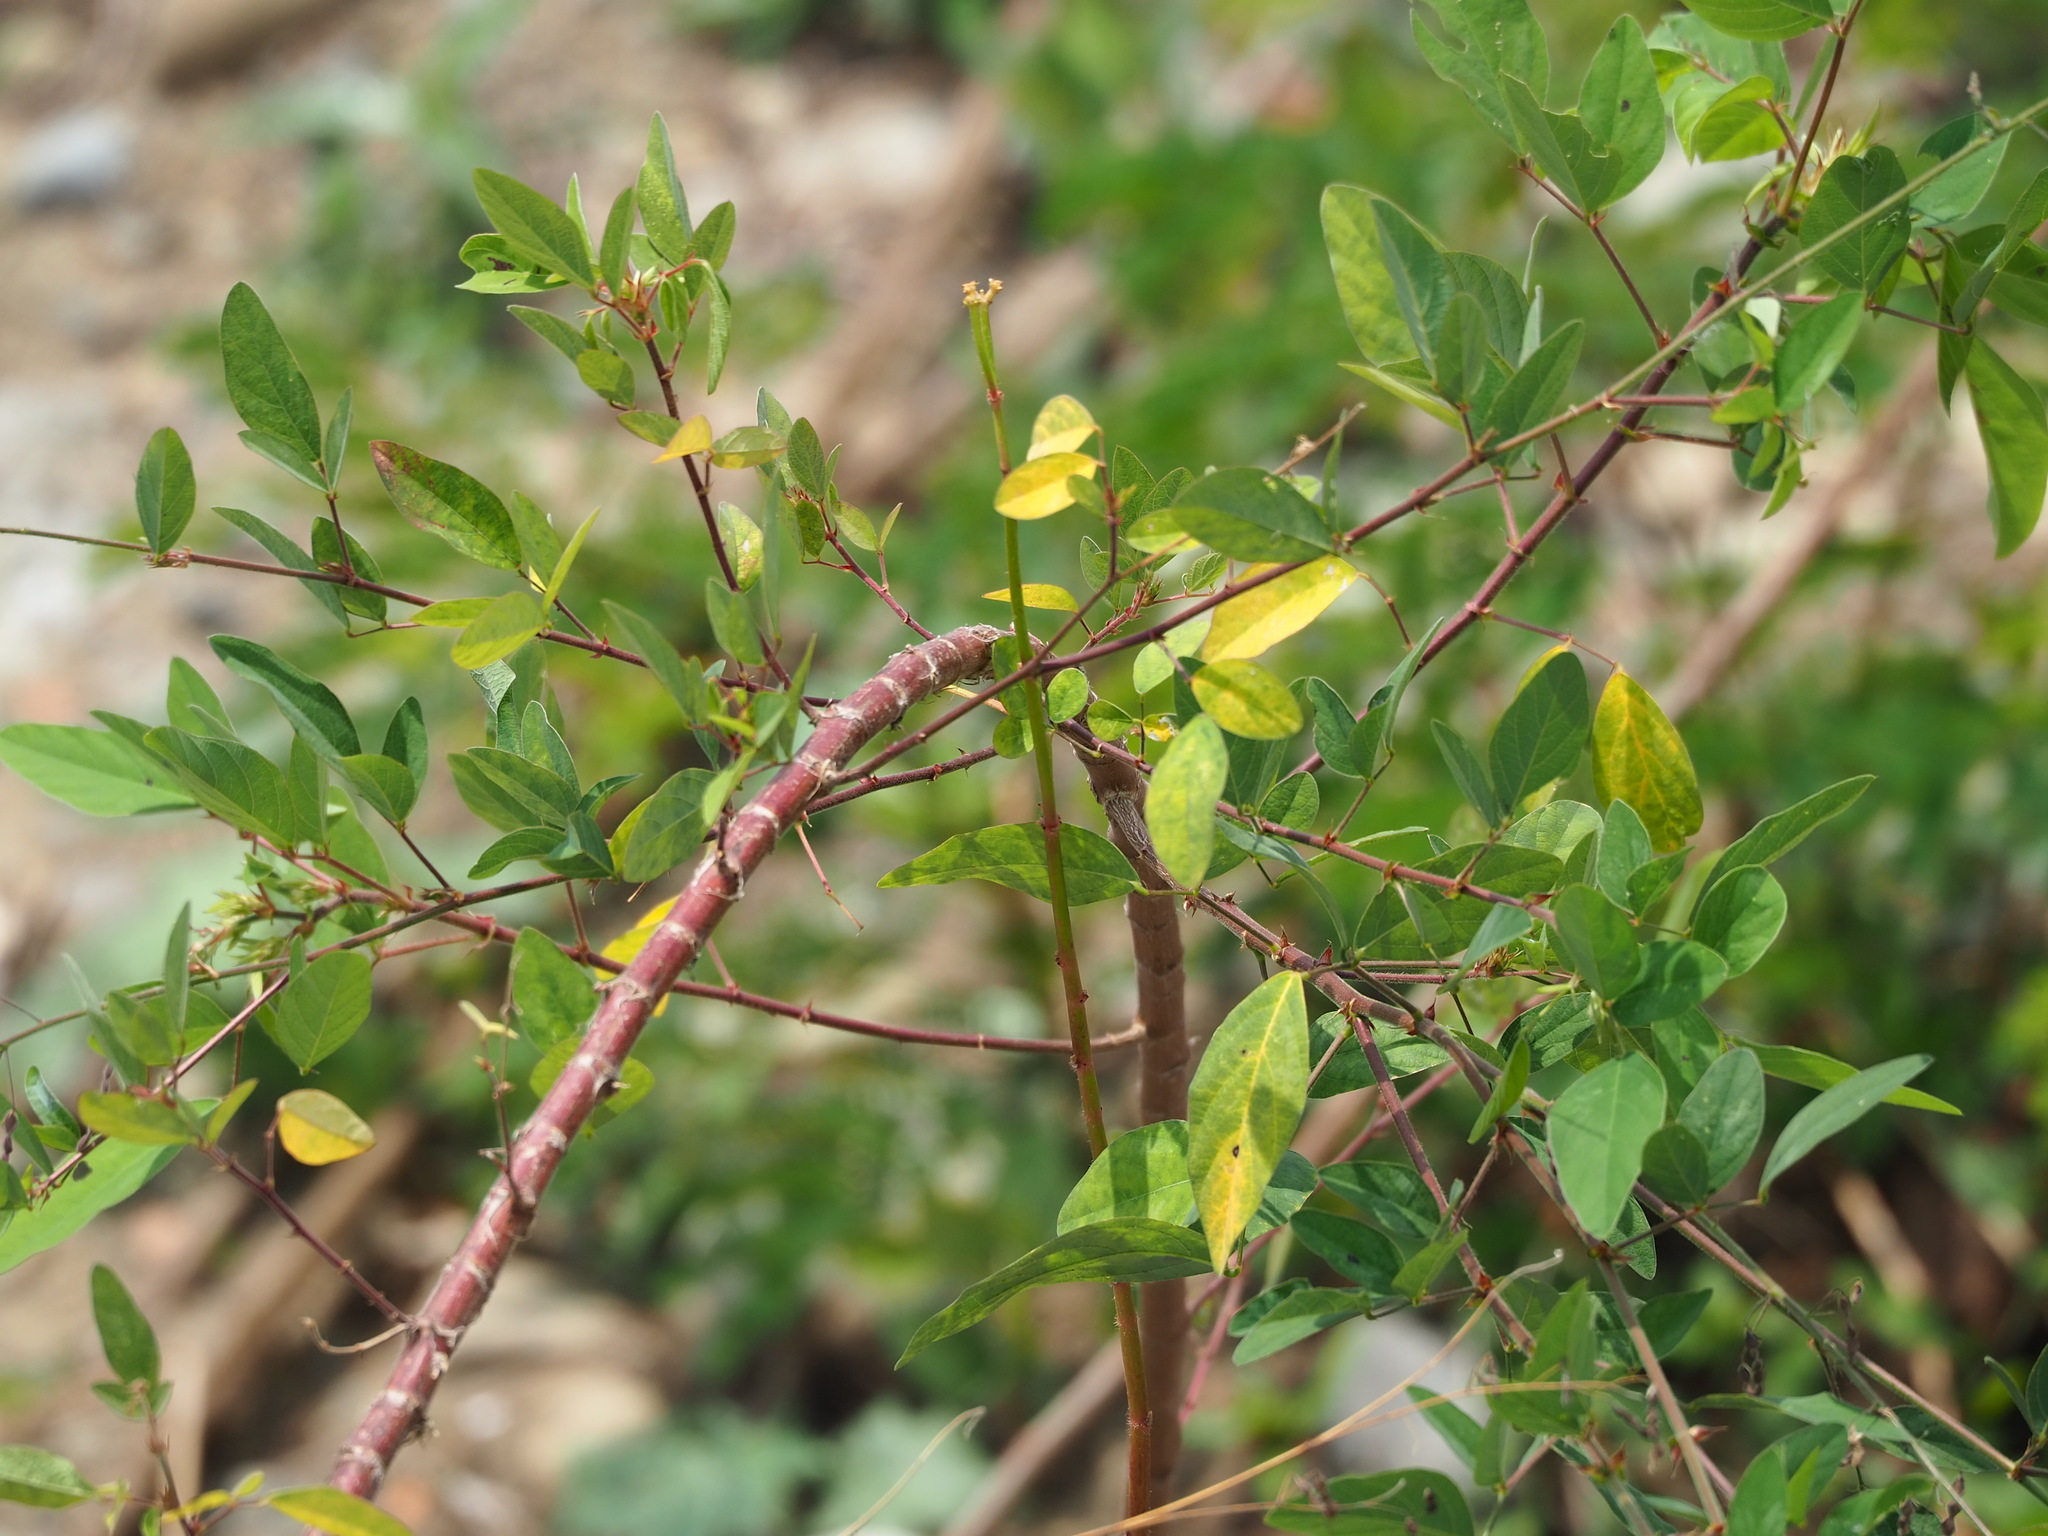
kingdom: Plantae
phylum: Tracheophyta
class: Magnoliopsida
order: Fabales
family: Fabaceae
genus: Desmodium
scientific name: Desmodium tortuosum
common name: Dixie ticktrefoil
